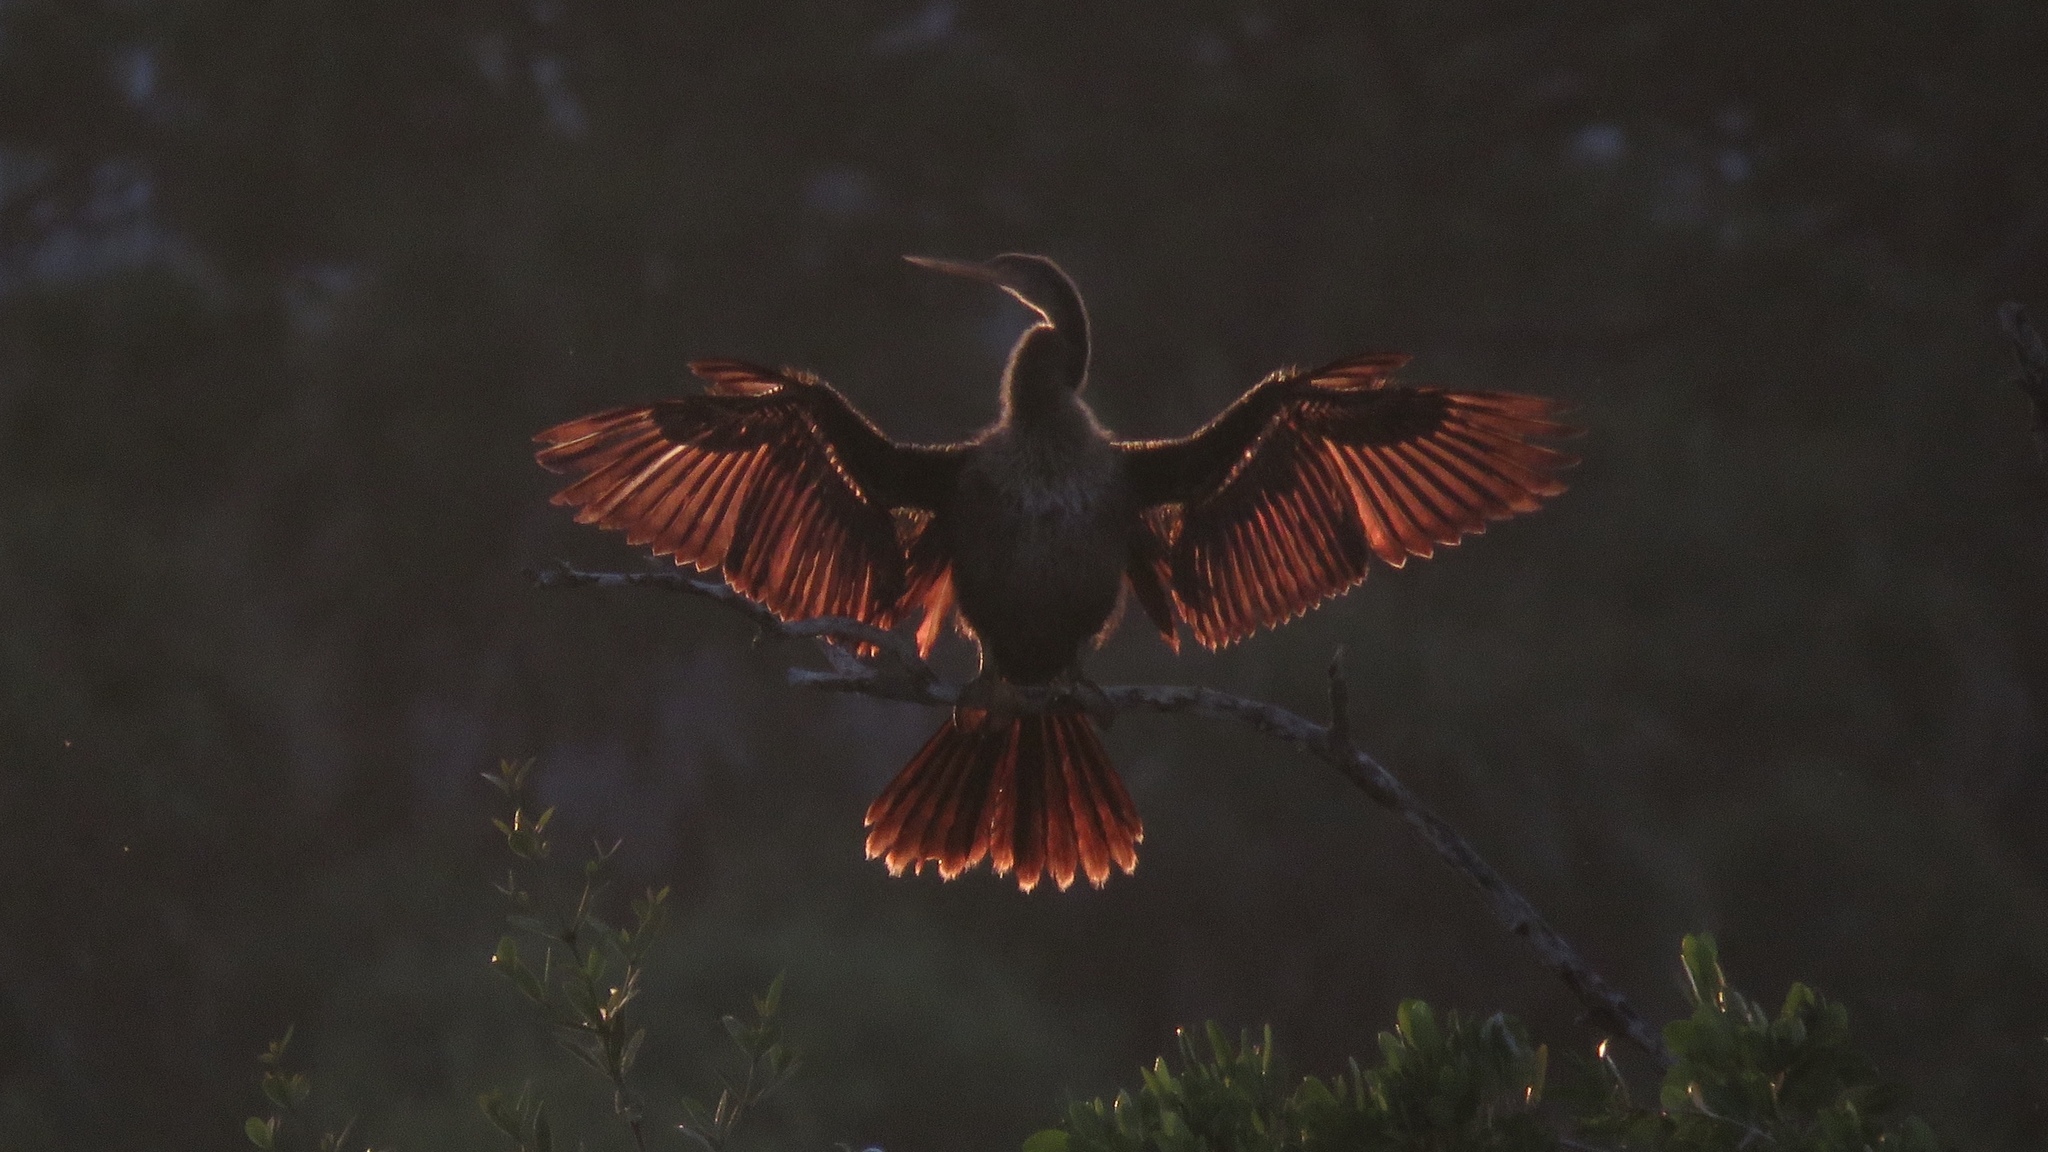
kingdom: Animalia
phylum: Chordata
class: Aves
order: Suliformes
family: Anhingidae
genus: Anhinga
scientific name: Anhinga anhinga
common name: Anhinga
